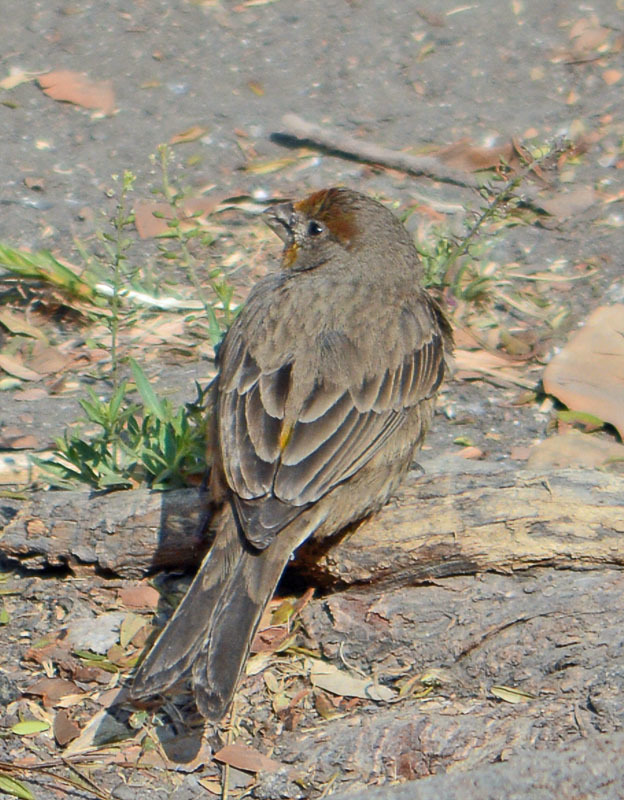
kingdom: Animalia
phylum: Chordata
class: Aves
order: Passeriformes
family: Fringillidae
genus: Haemorhous
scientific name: Haemorhous mexicanus
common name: House finch
